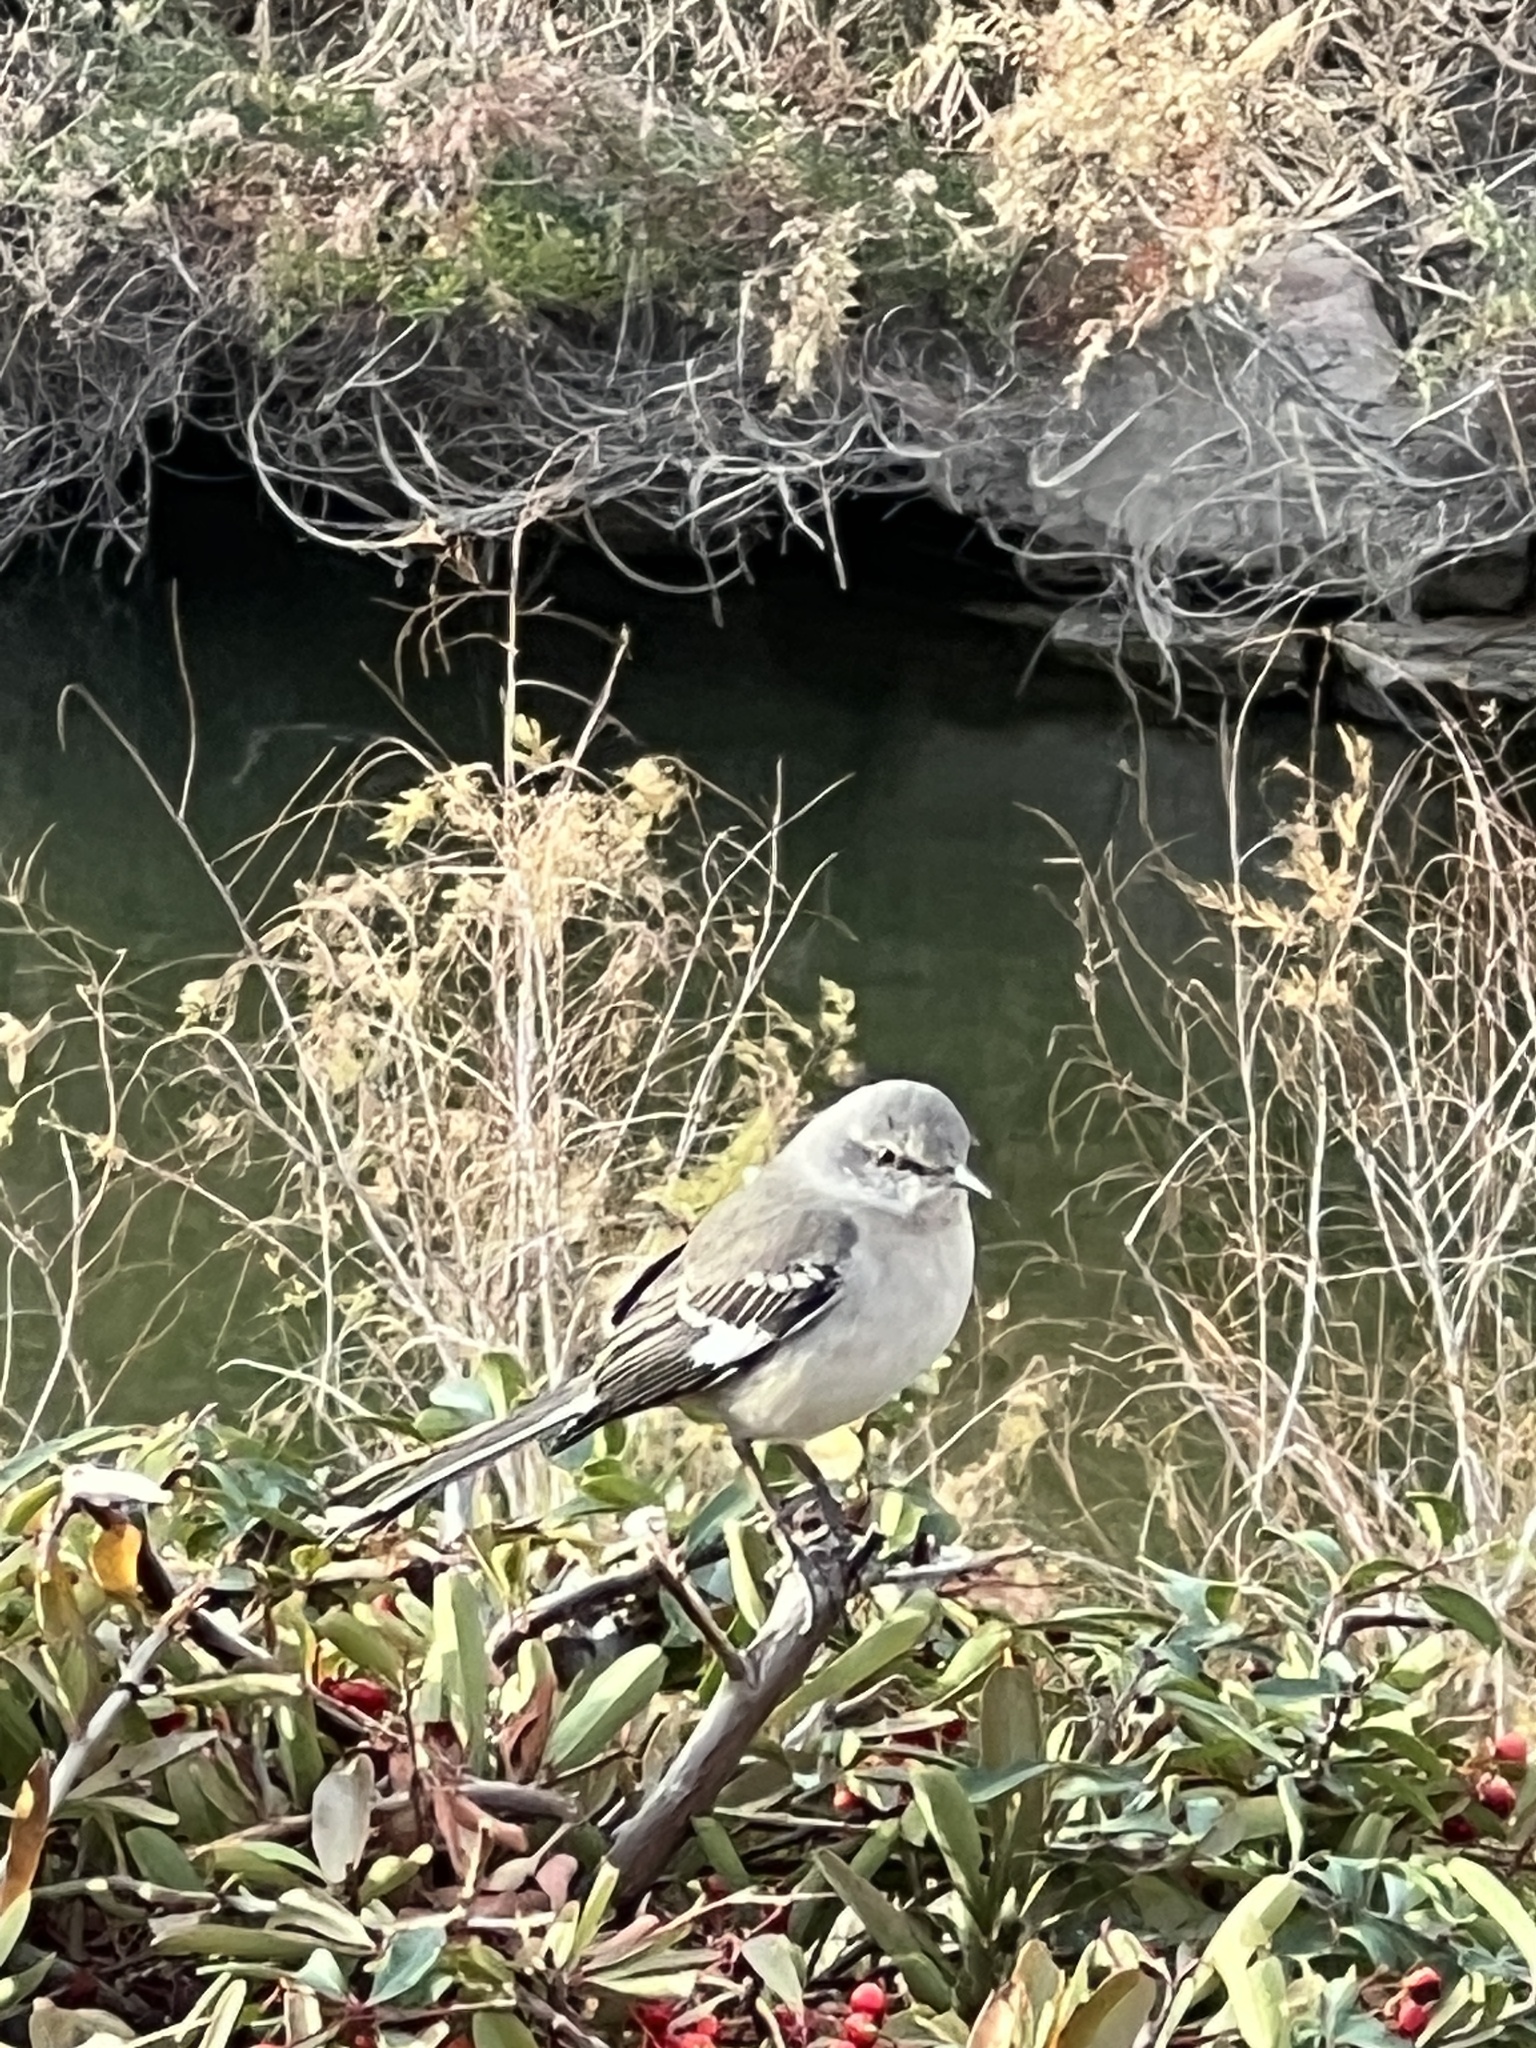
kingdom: Animalia
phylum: Chordata
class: Aves
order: Passeriformes
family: Mimidae
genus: Mimus
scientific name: Mimus polyglottos
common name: Northern mockingbird
